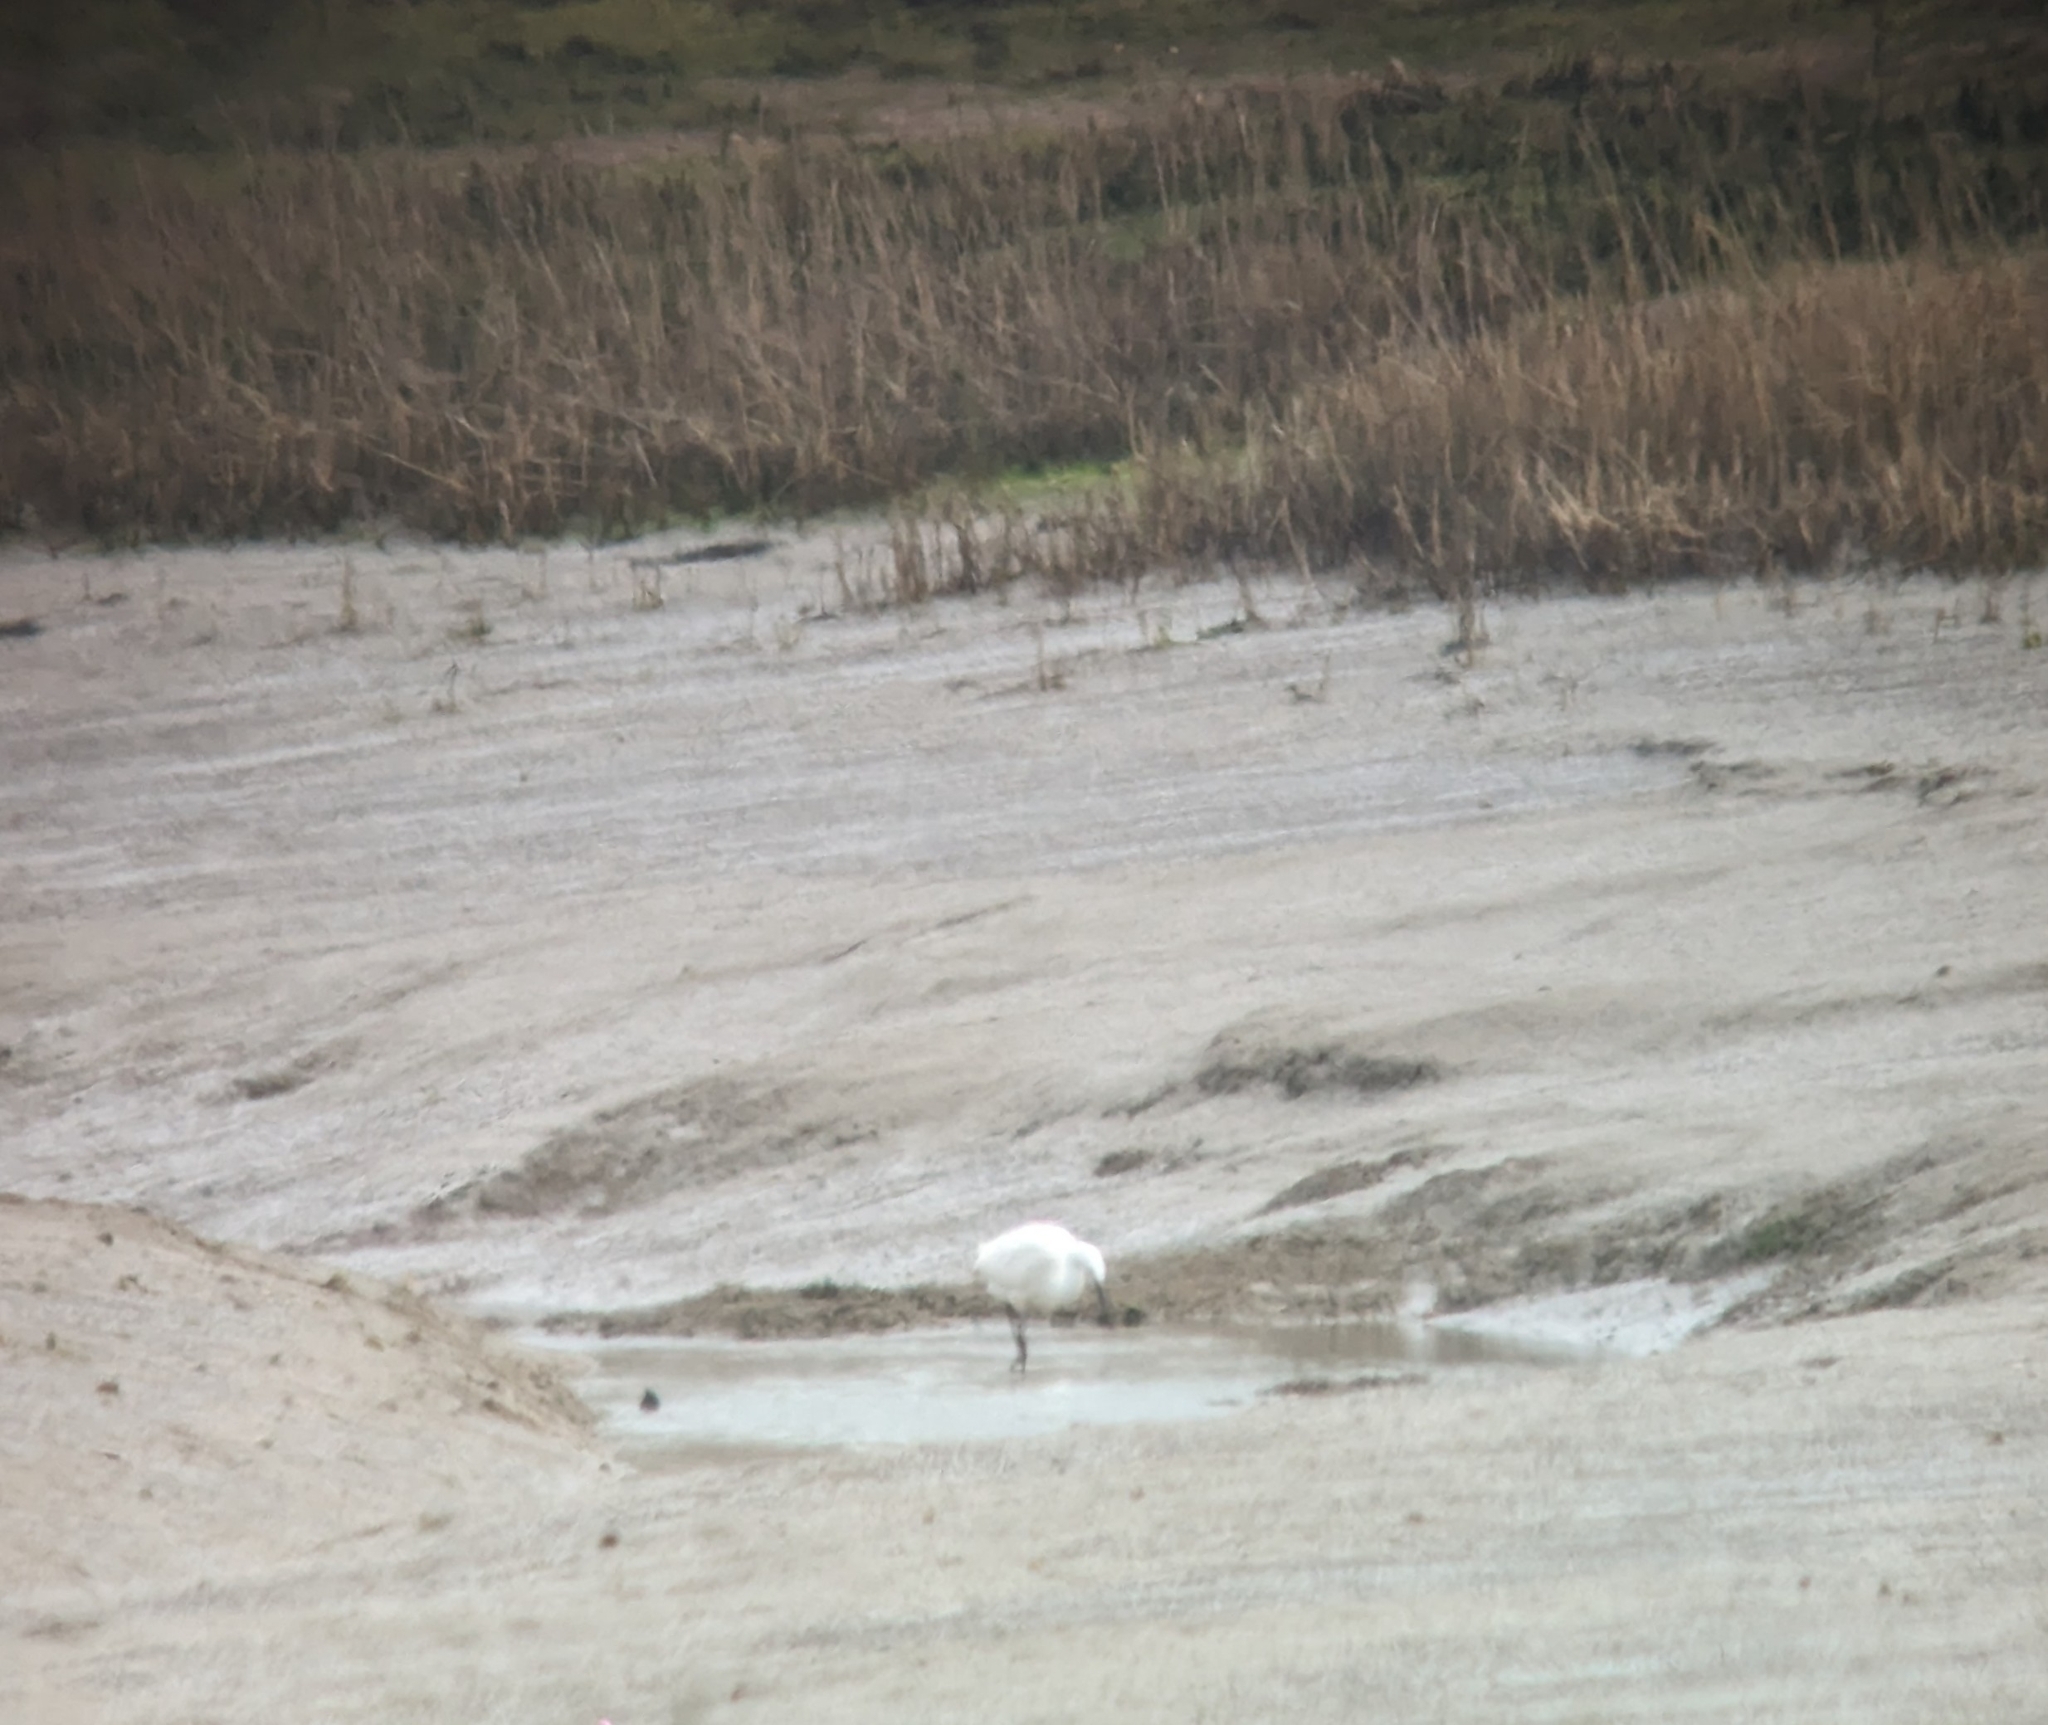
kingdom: Animalia
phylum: Chordata
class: Aves
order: Pelecaniformes
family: Ardeidae
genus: Egretta
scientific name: Egretta garzetta
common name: Little egret
